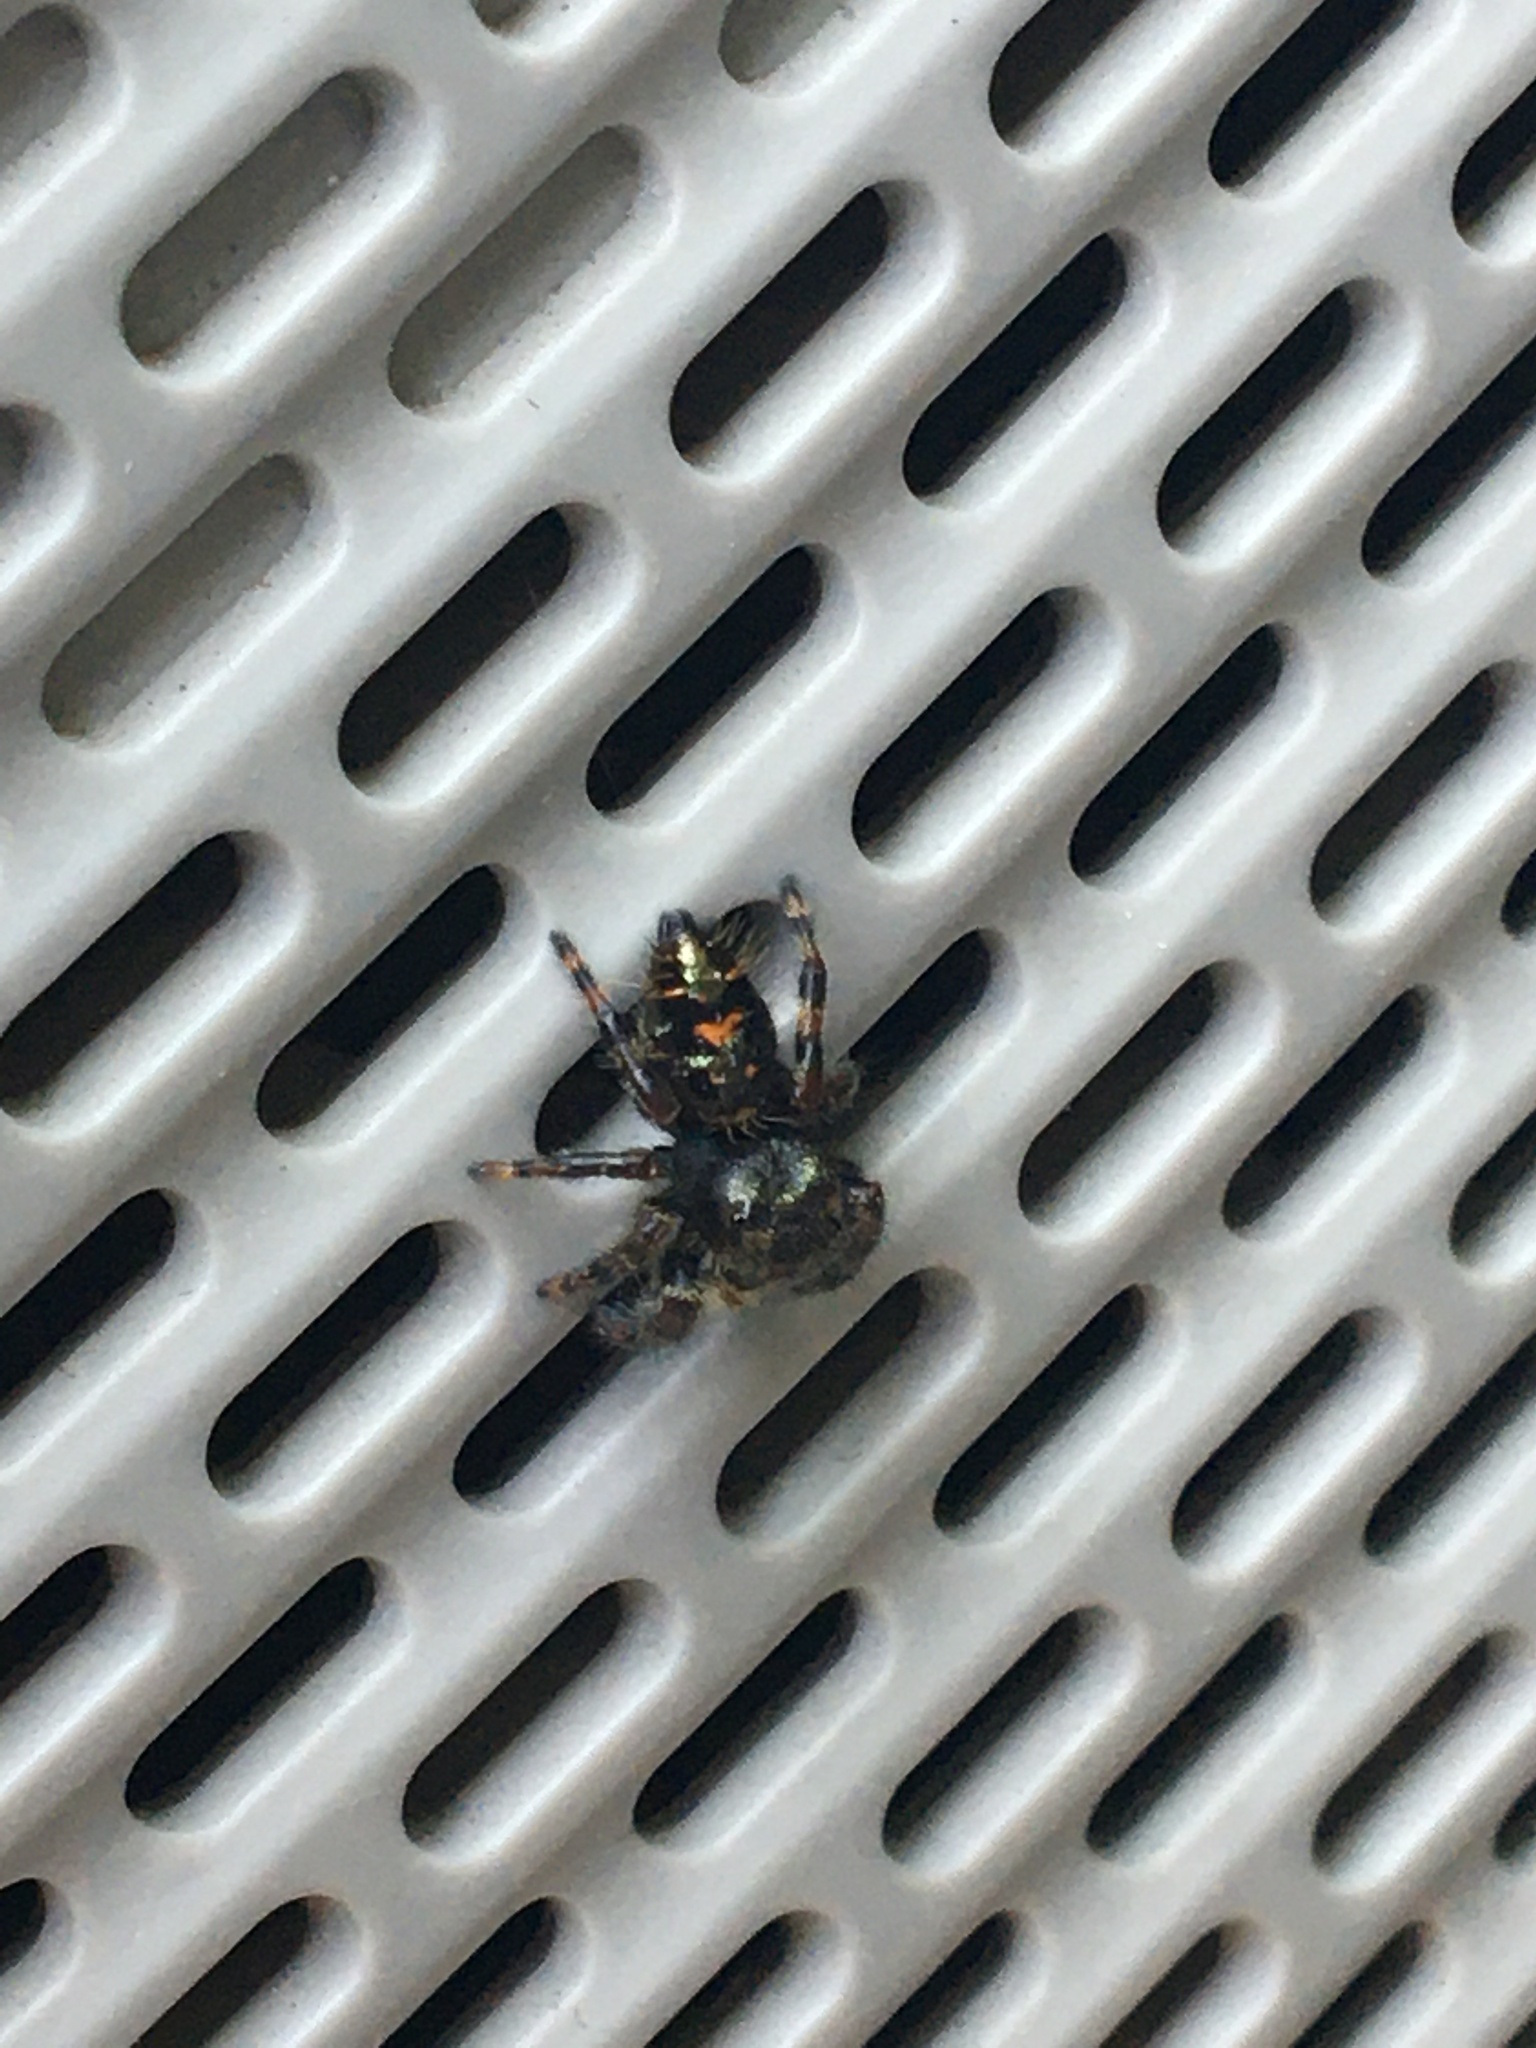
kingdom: Animalia
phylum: Arthropoda
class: Arachnida
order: Araneae
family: Salticidae
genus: Phidippus
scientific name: Phidippus audax
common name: Bold jumper
